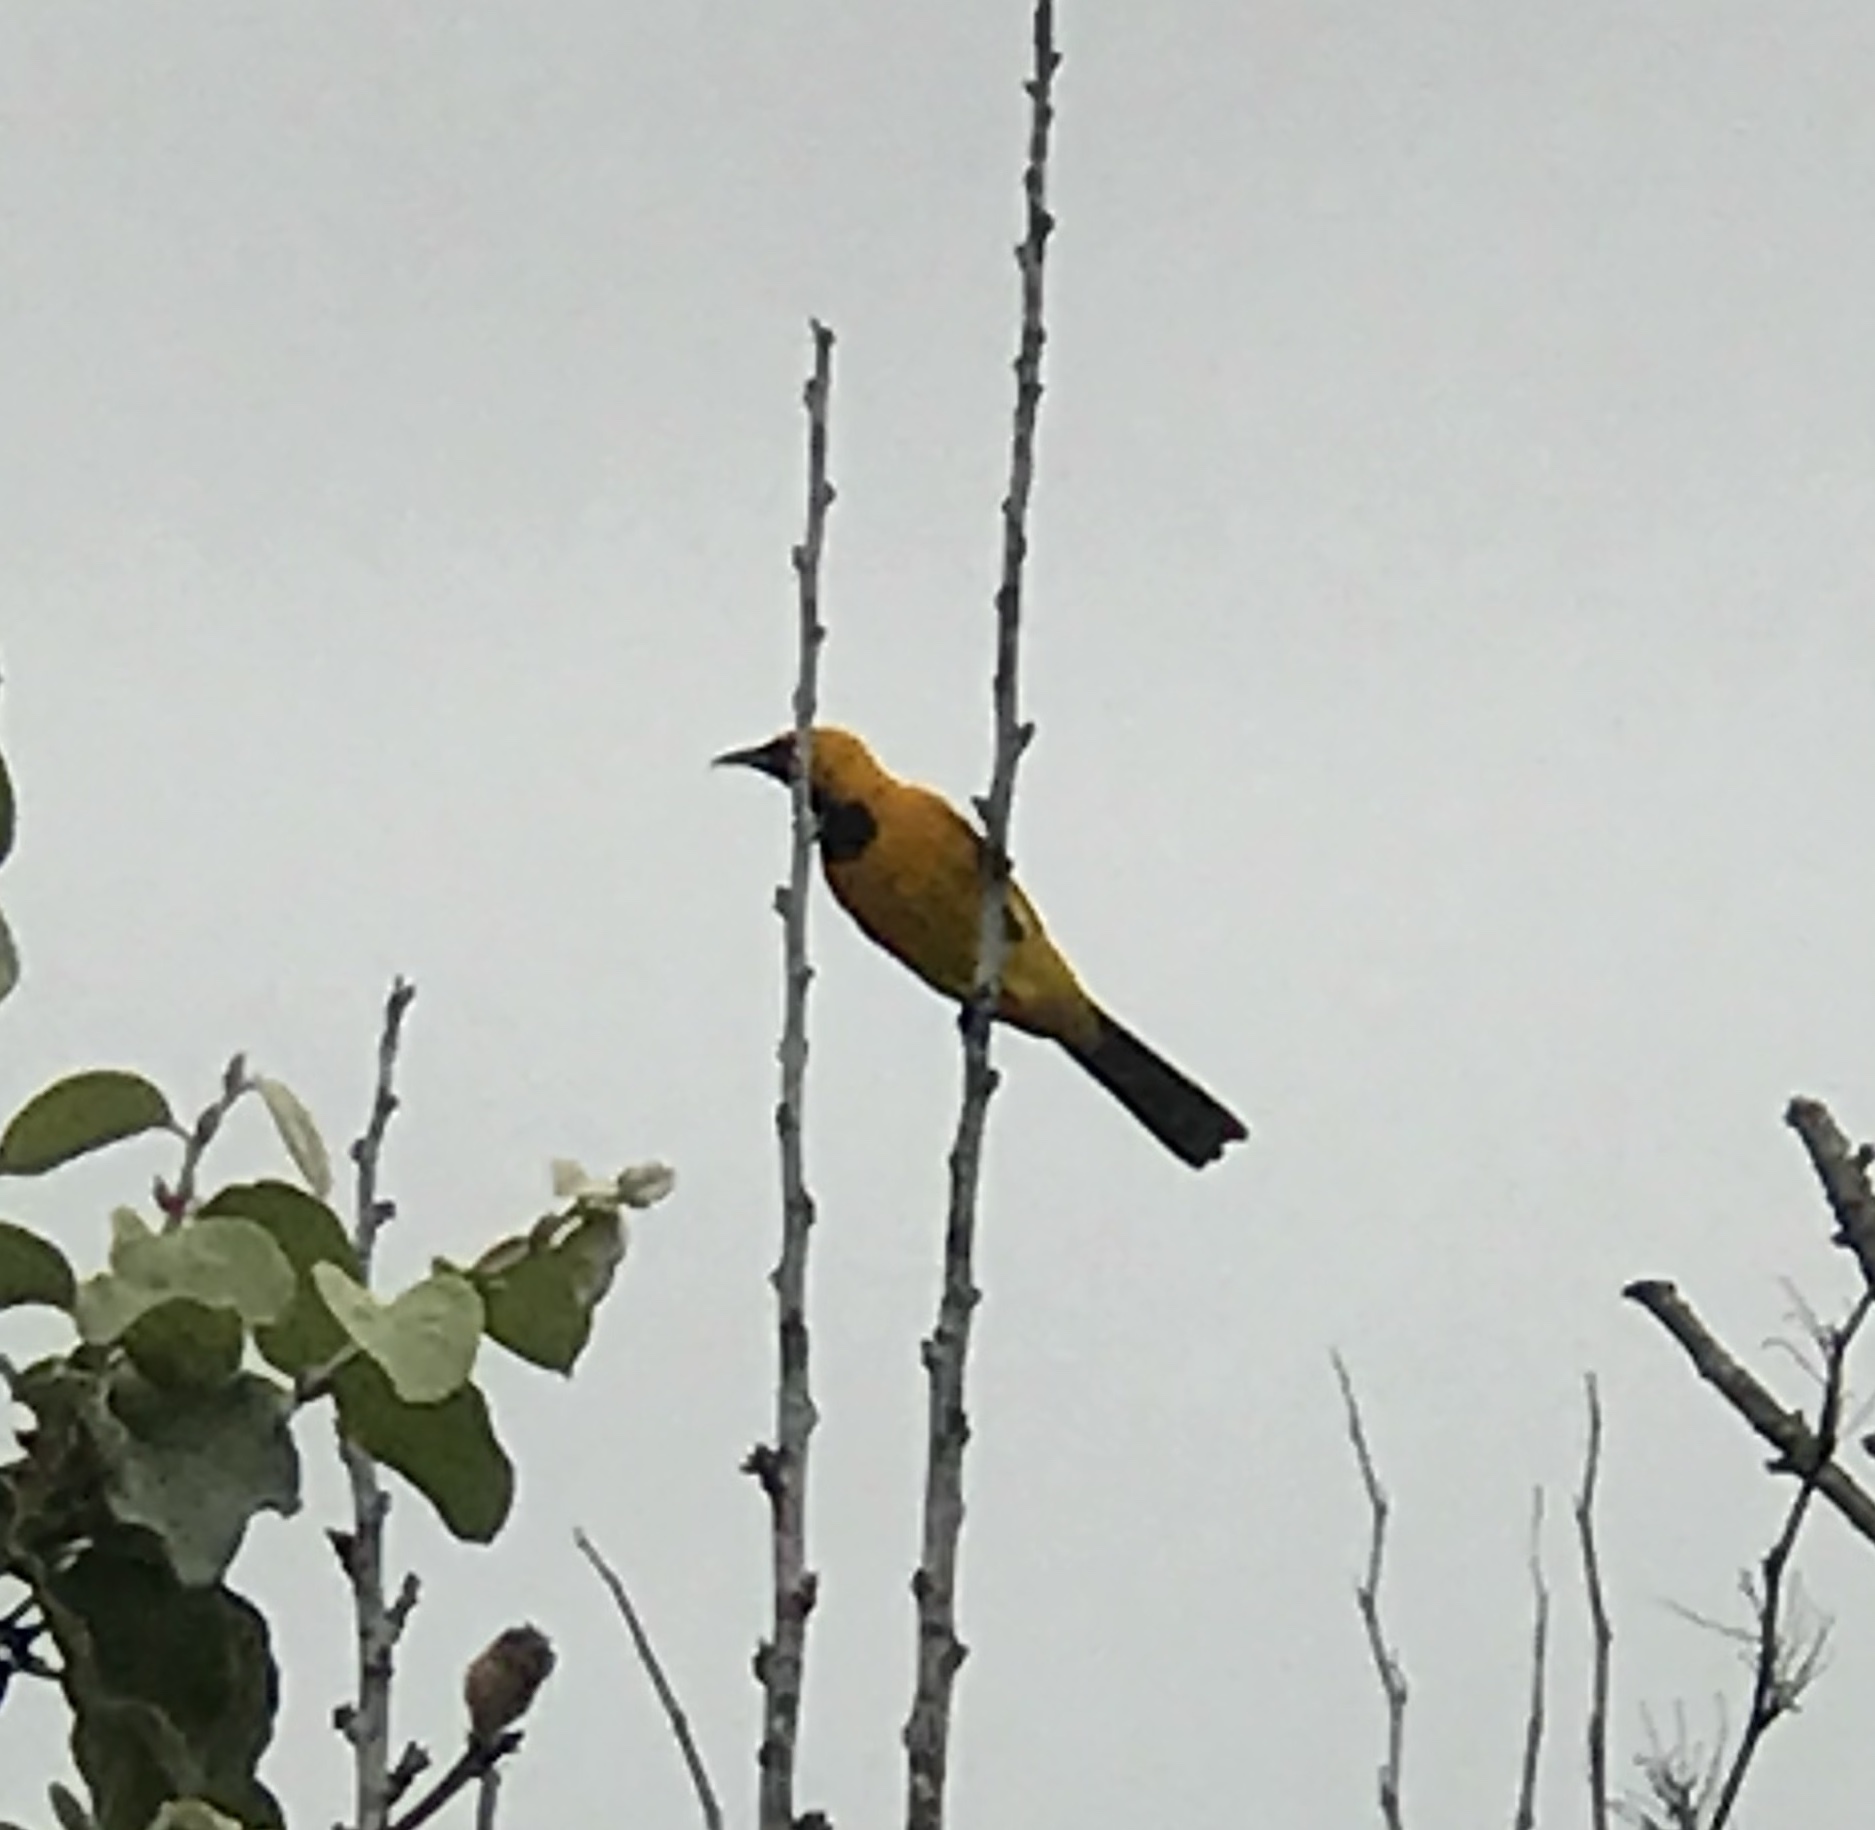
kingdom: Animalia
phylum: Chordata
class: Aves
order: Passeriformes
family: Icteridae
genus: Icterus
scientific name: Icterus cucullatus
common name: Hooded oriole
